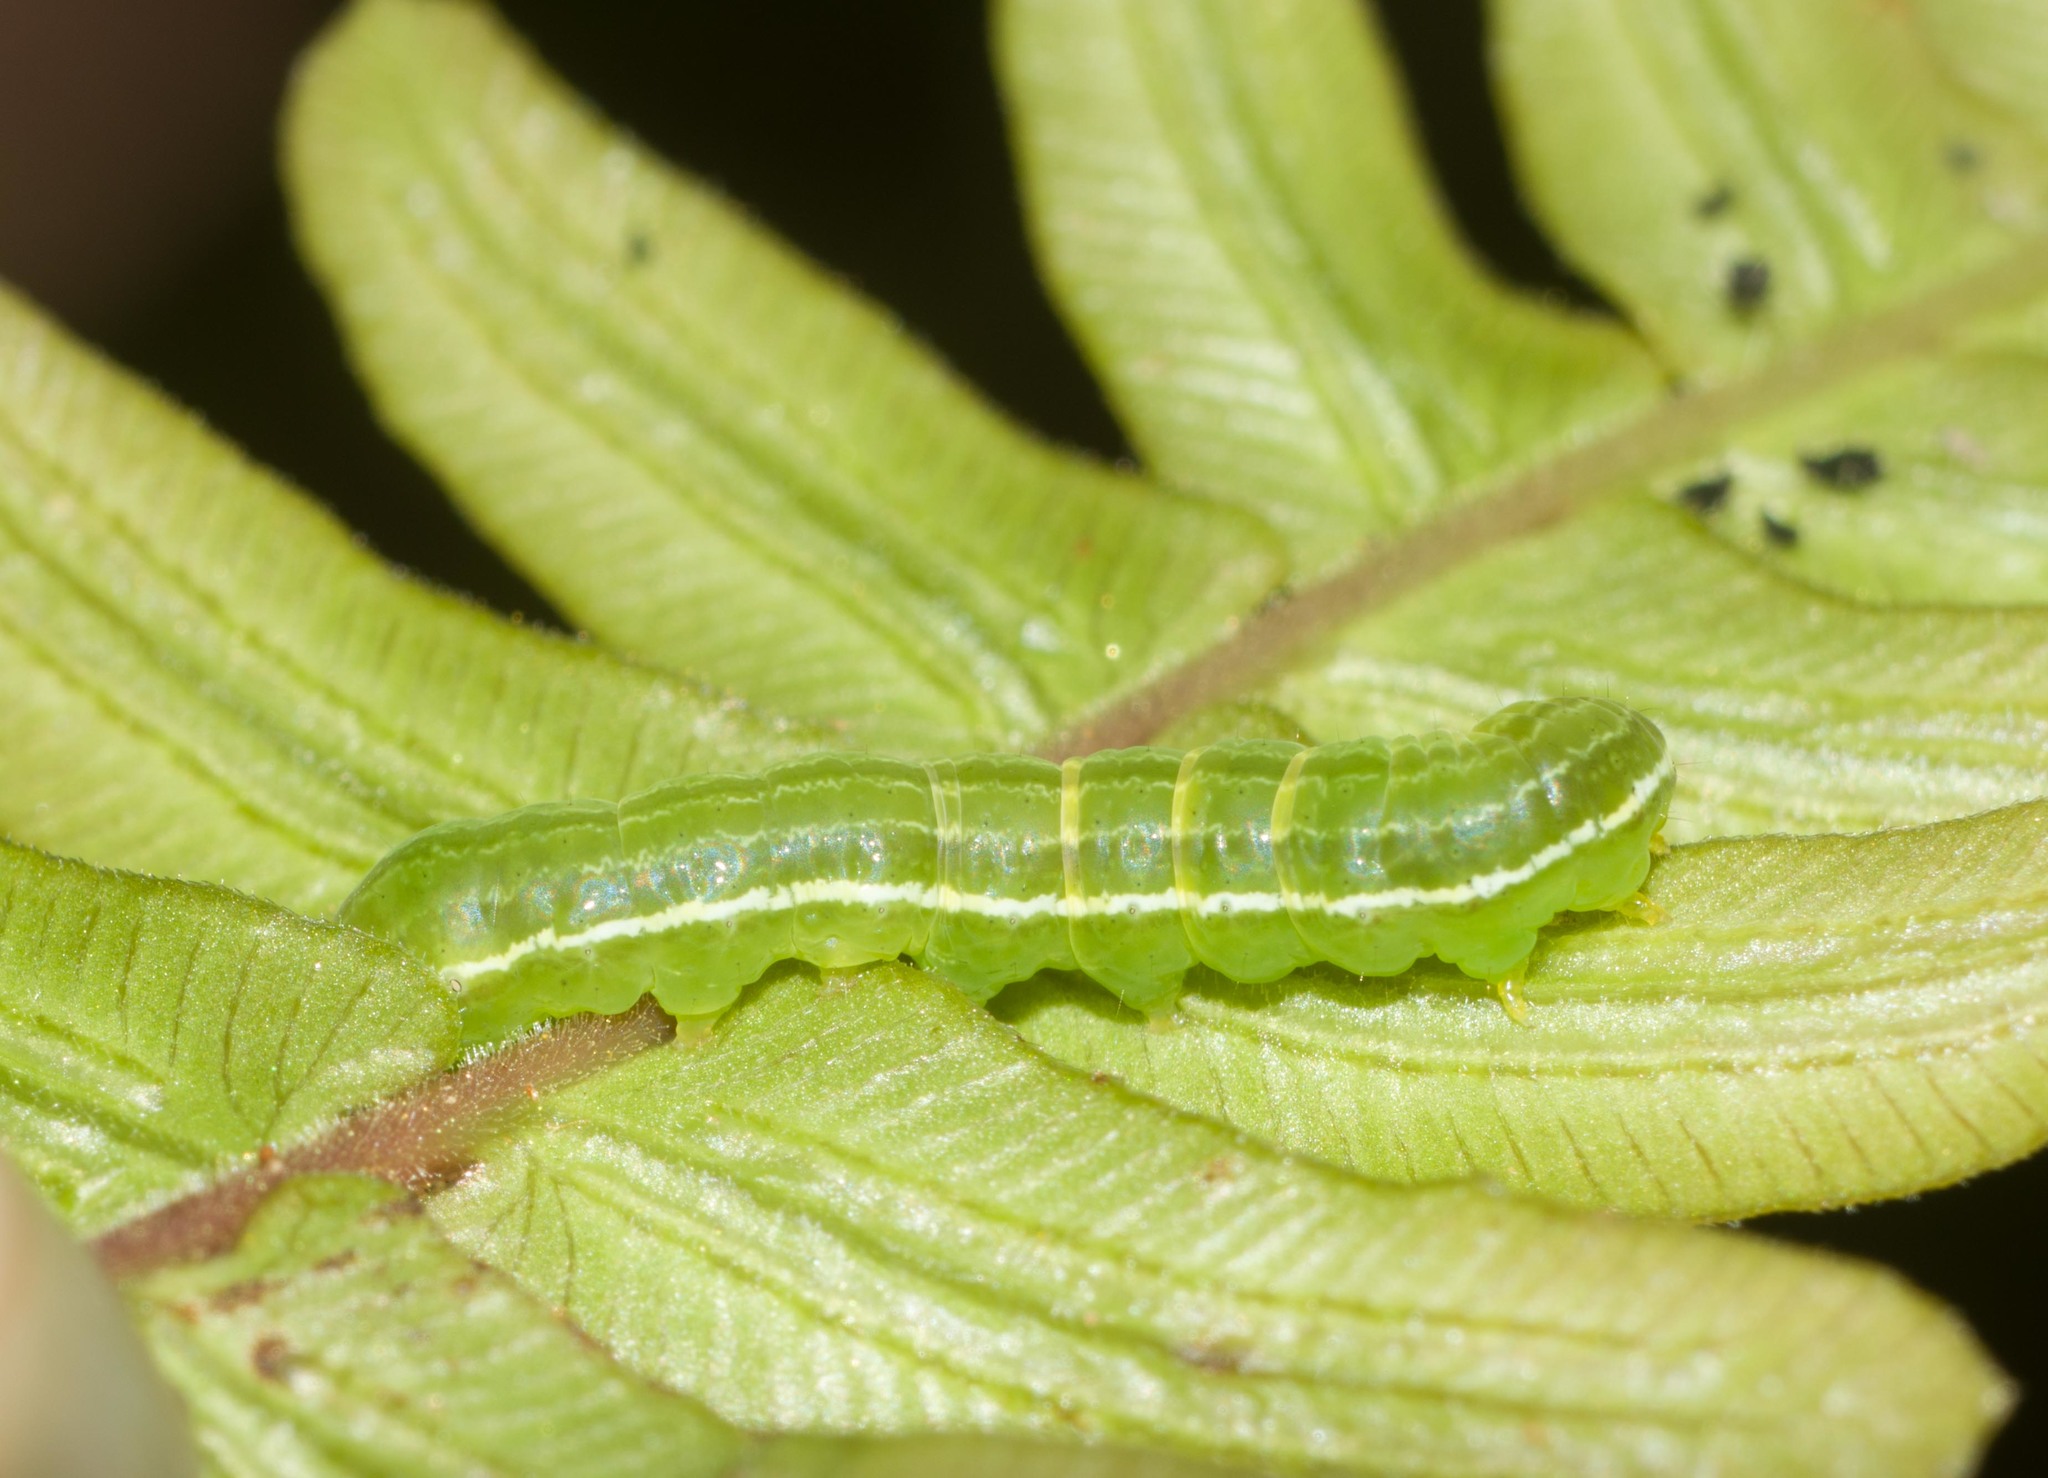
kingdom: Animalia
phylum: Arthropoda
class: Insecta
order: Lepidoptera
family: Noctuidae
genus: Callopistria
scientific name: Callopistria floridensis
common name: Florida fern moth
